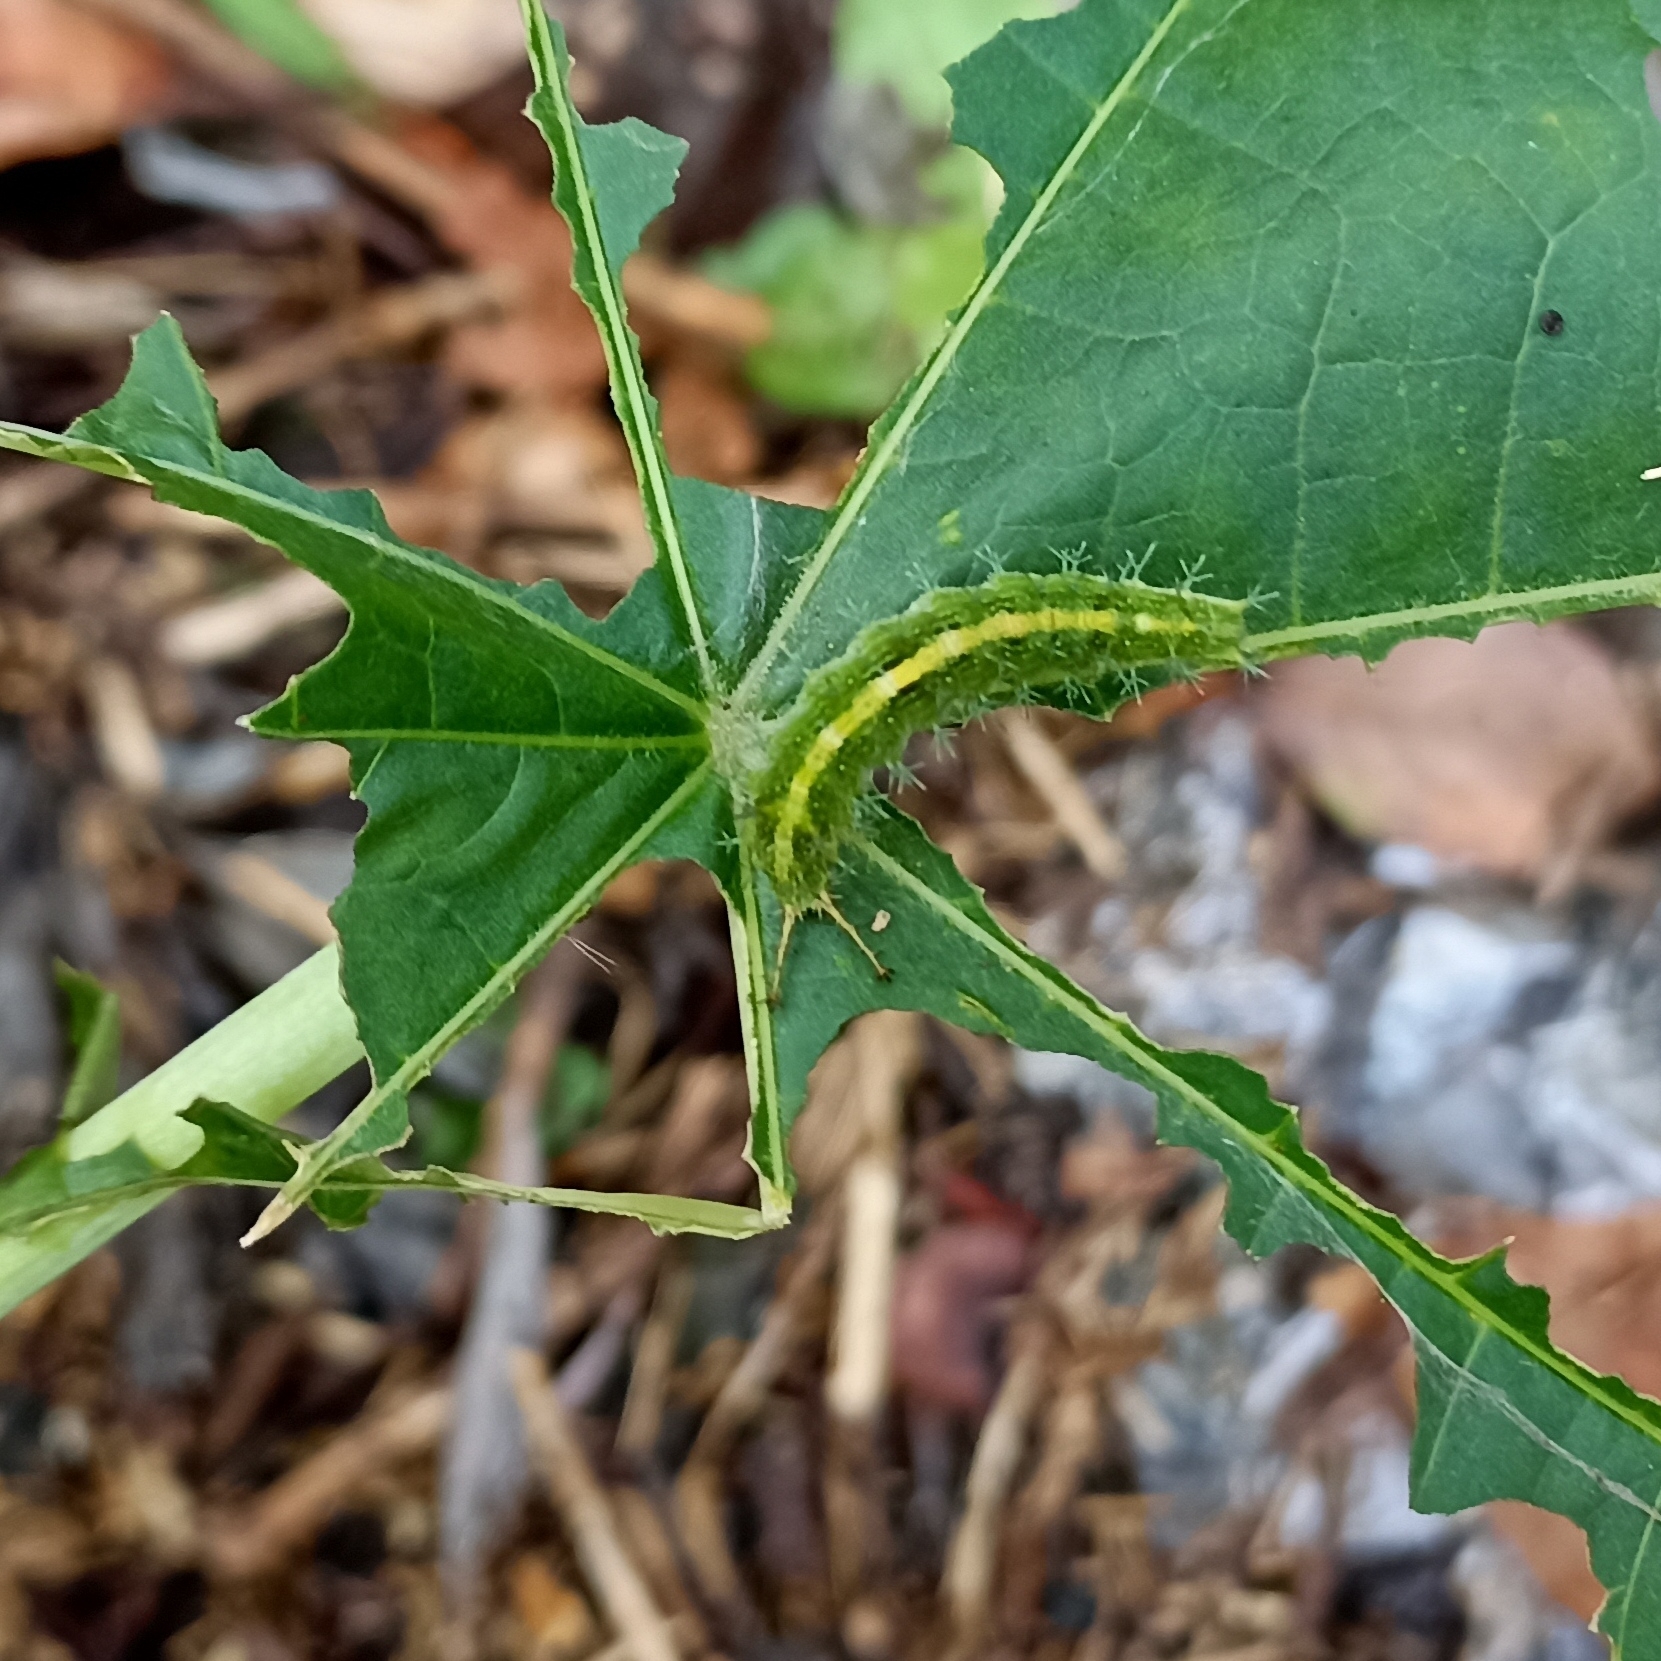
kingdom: Animalia
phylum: Arthropoda
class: Insecta
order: Lepidoptera
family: Nymphalidae
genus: Ariadne
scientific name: Ariadne merione
